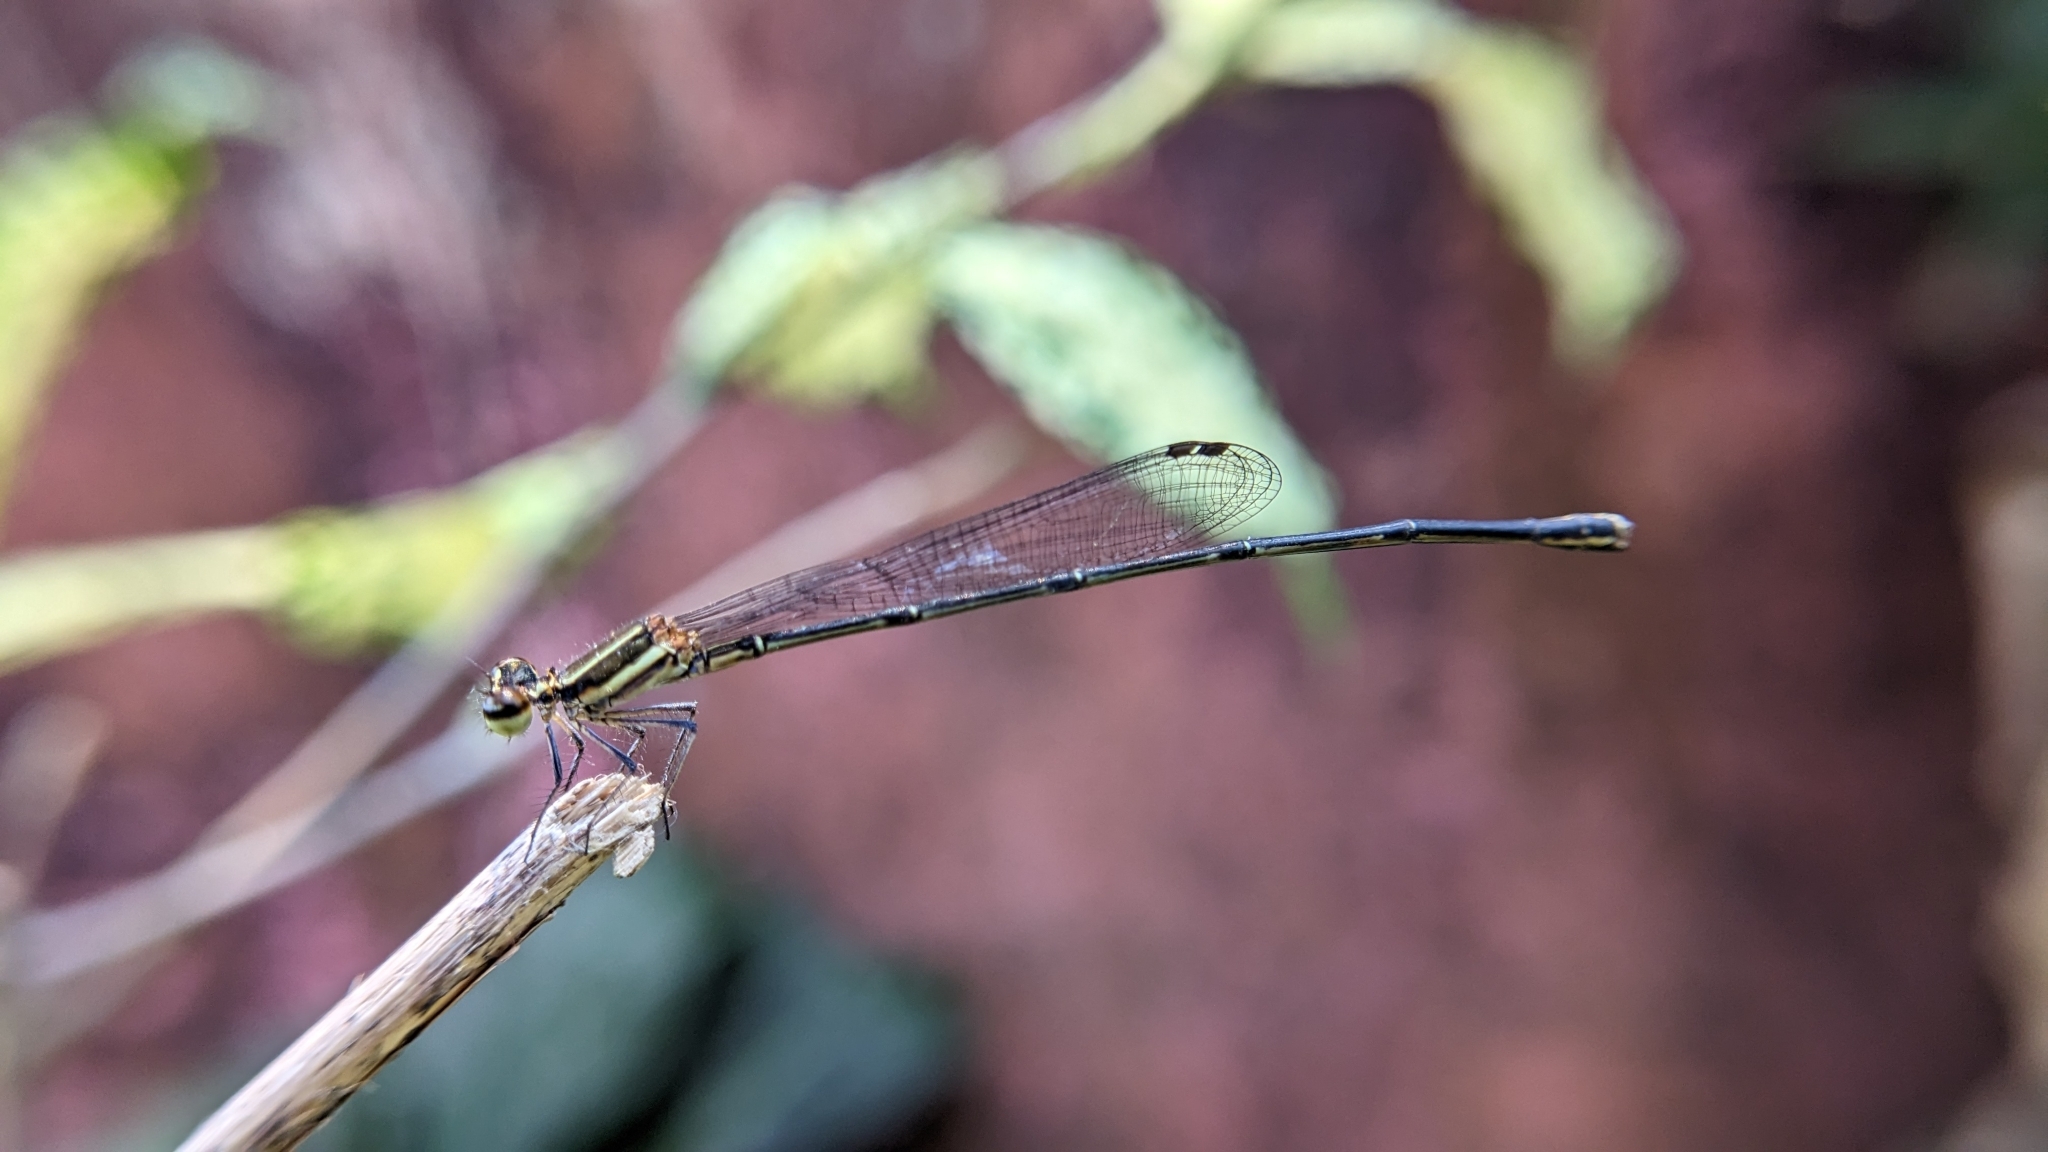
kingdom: Animalia
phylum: Arthropoda
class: Insecta
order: Odonata
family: Platycnemididae
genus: Prodasineura
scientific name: Prodasineura verticalis
